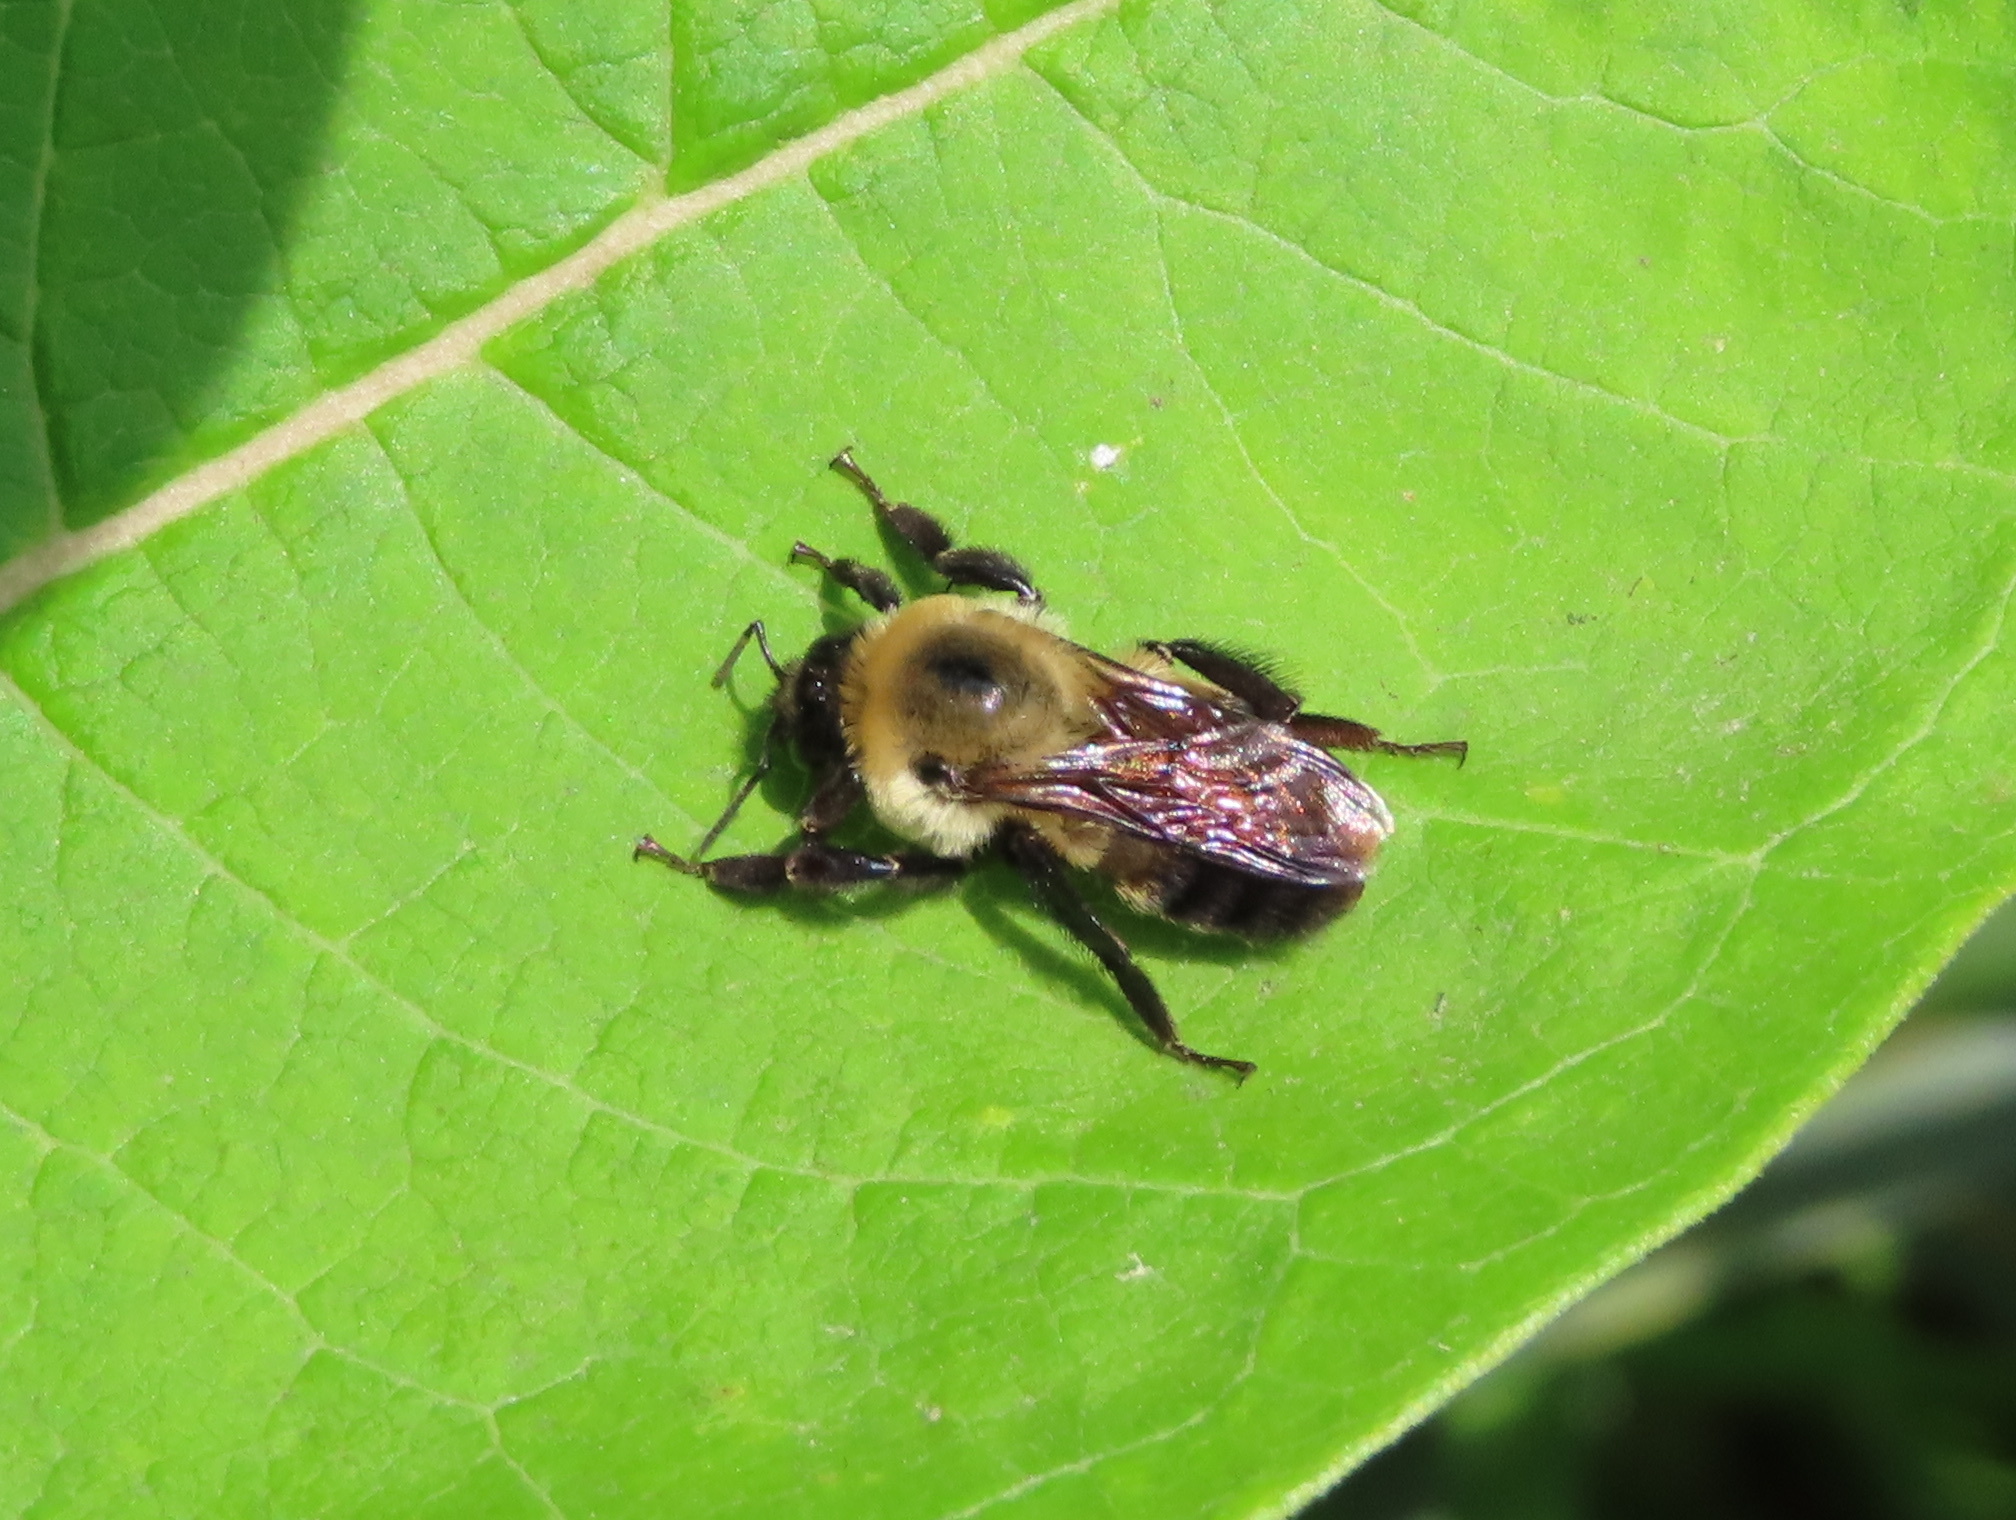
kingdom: Animalia
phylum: Arthropoda
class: Insecta
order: Hymenoptera
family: Apidae
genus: Bombus
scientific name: Bombus griseocollis
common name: Brown-belted bumble bee
